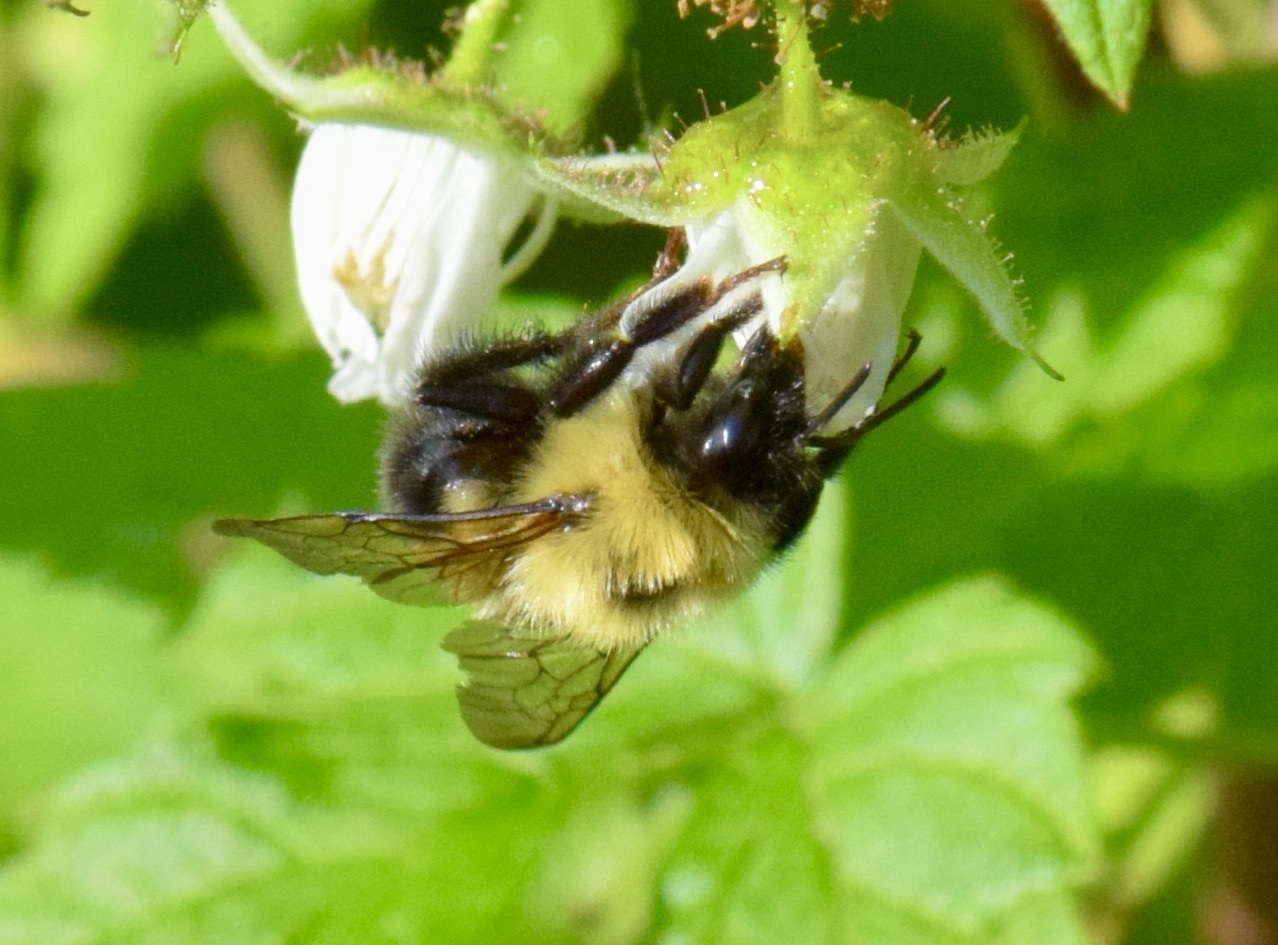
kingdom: Animalia
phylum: Arthropoda
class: Insecta
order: Hymenoptera
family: Apidae
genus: Bombus
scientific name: Bombus bimaculatus
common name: Two-spotted bumble bee
